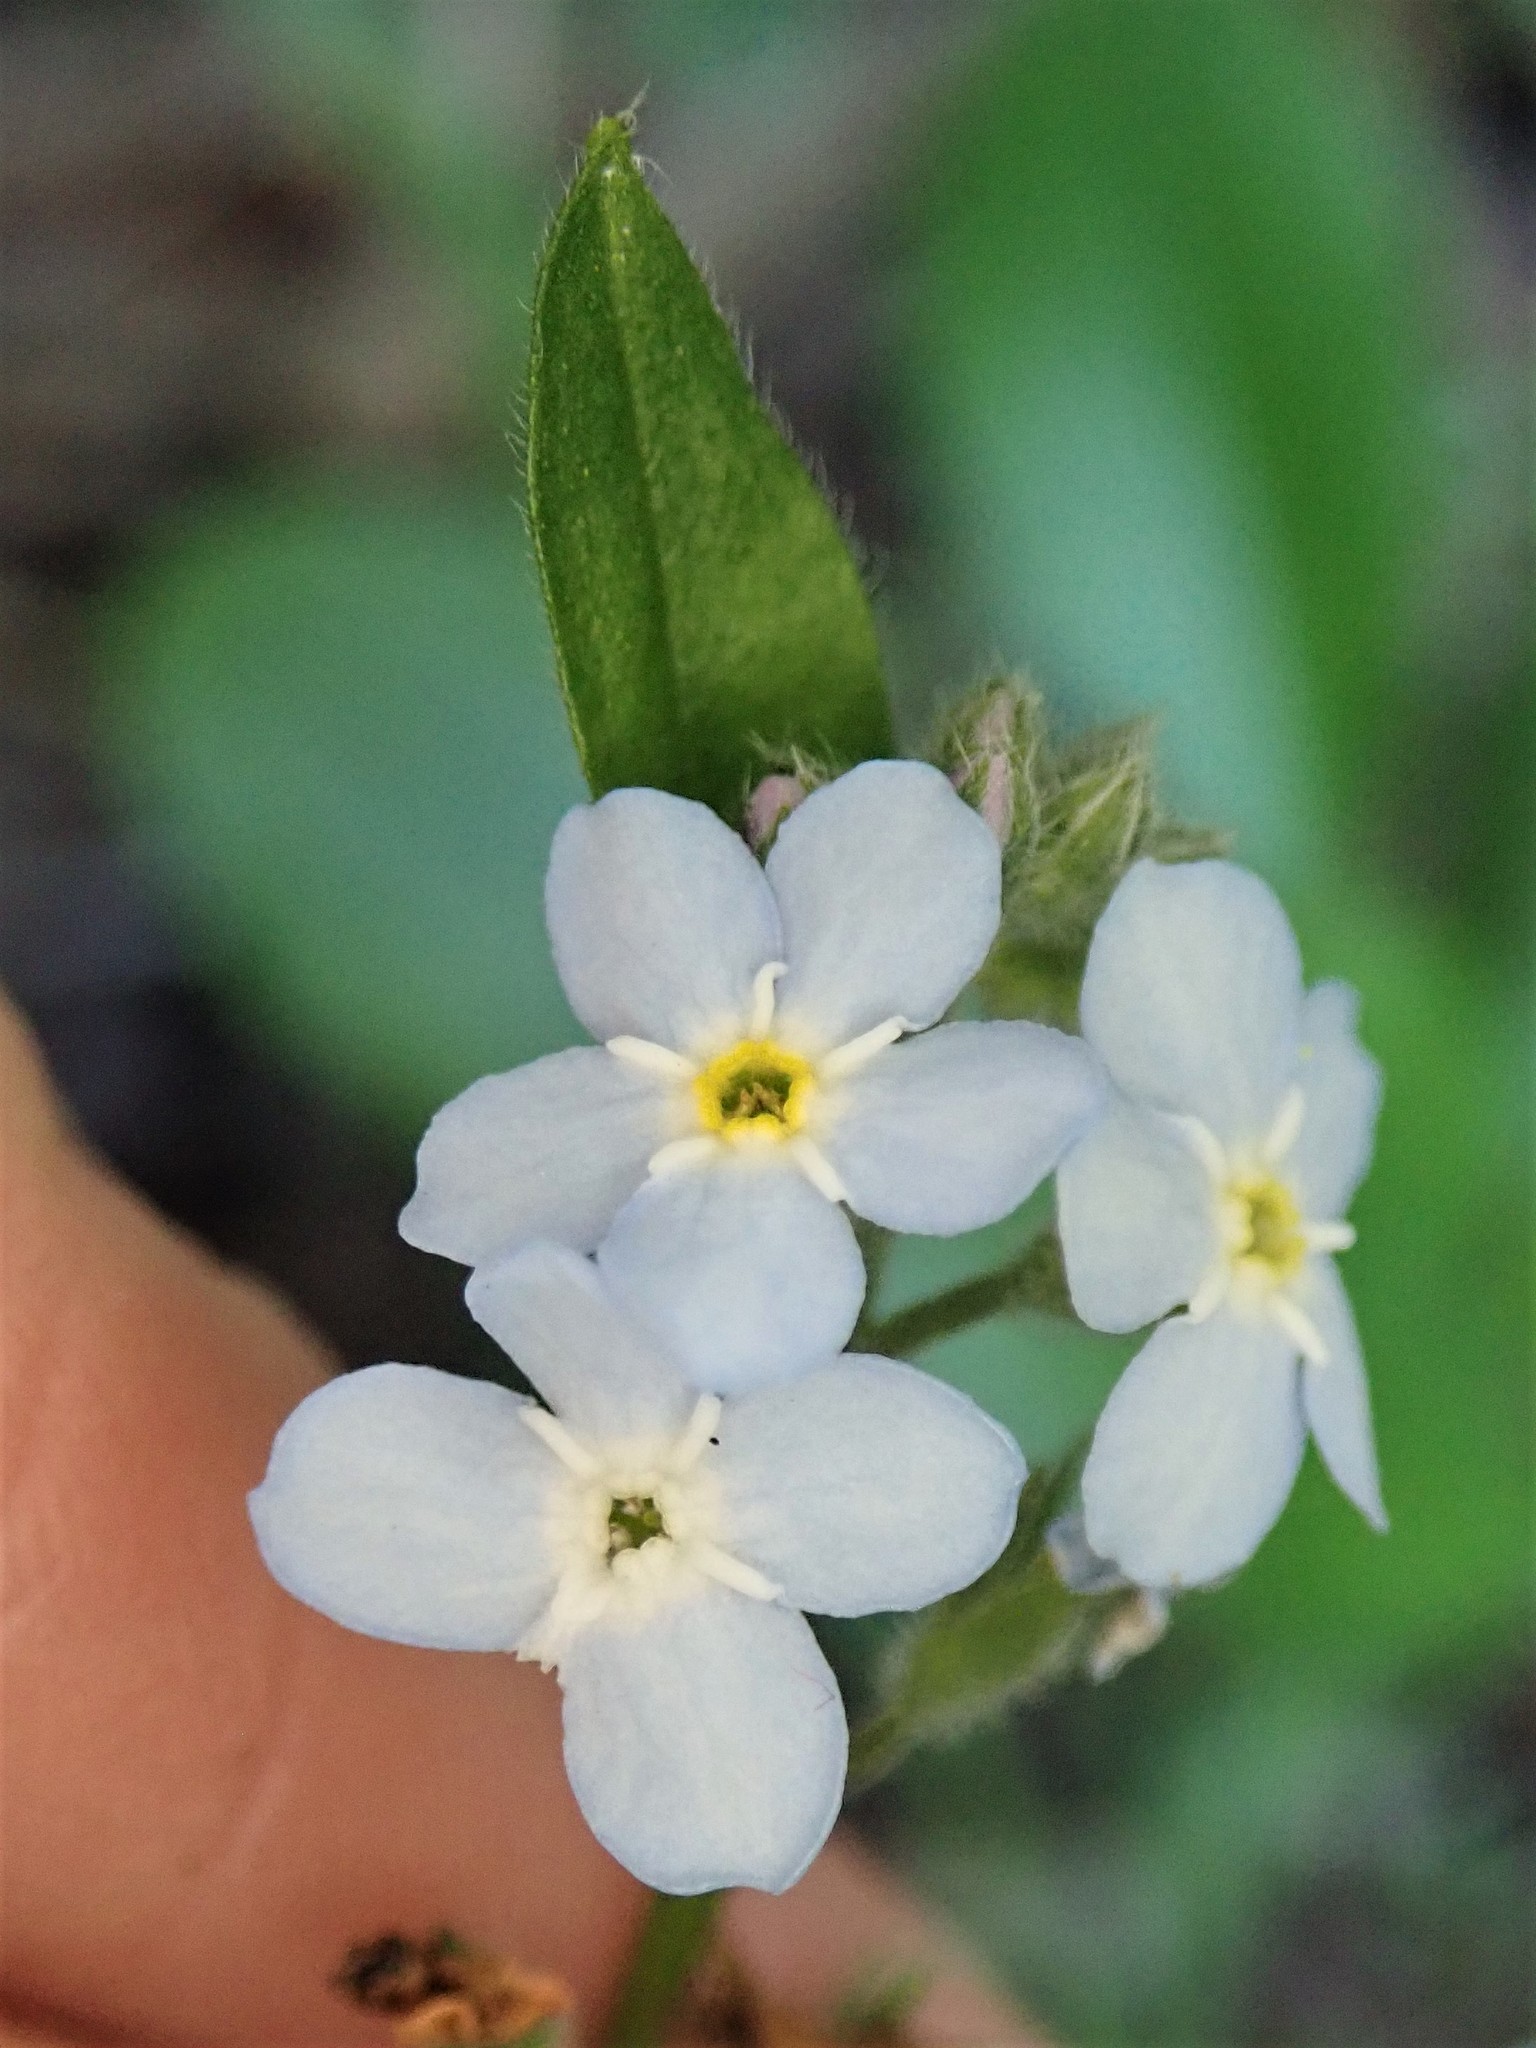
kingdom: Plantae
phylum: Tracheophyta
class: Magnoliopsida
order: Boraginales
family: Boraginaceae
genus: Myosotis
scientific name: Myosotis latifolia
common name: Broadleaf forget-me-not
